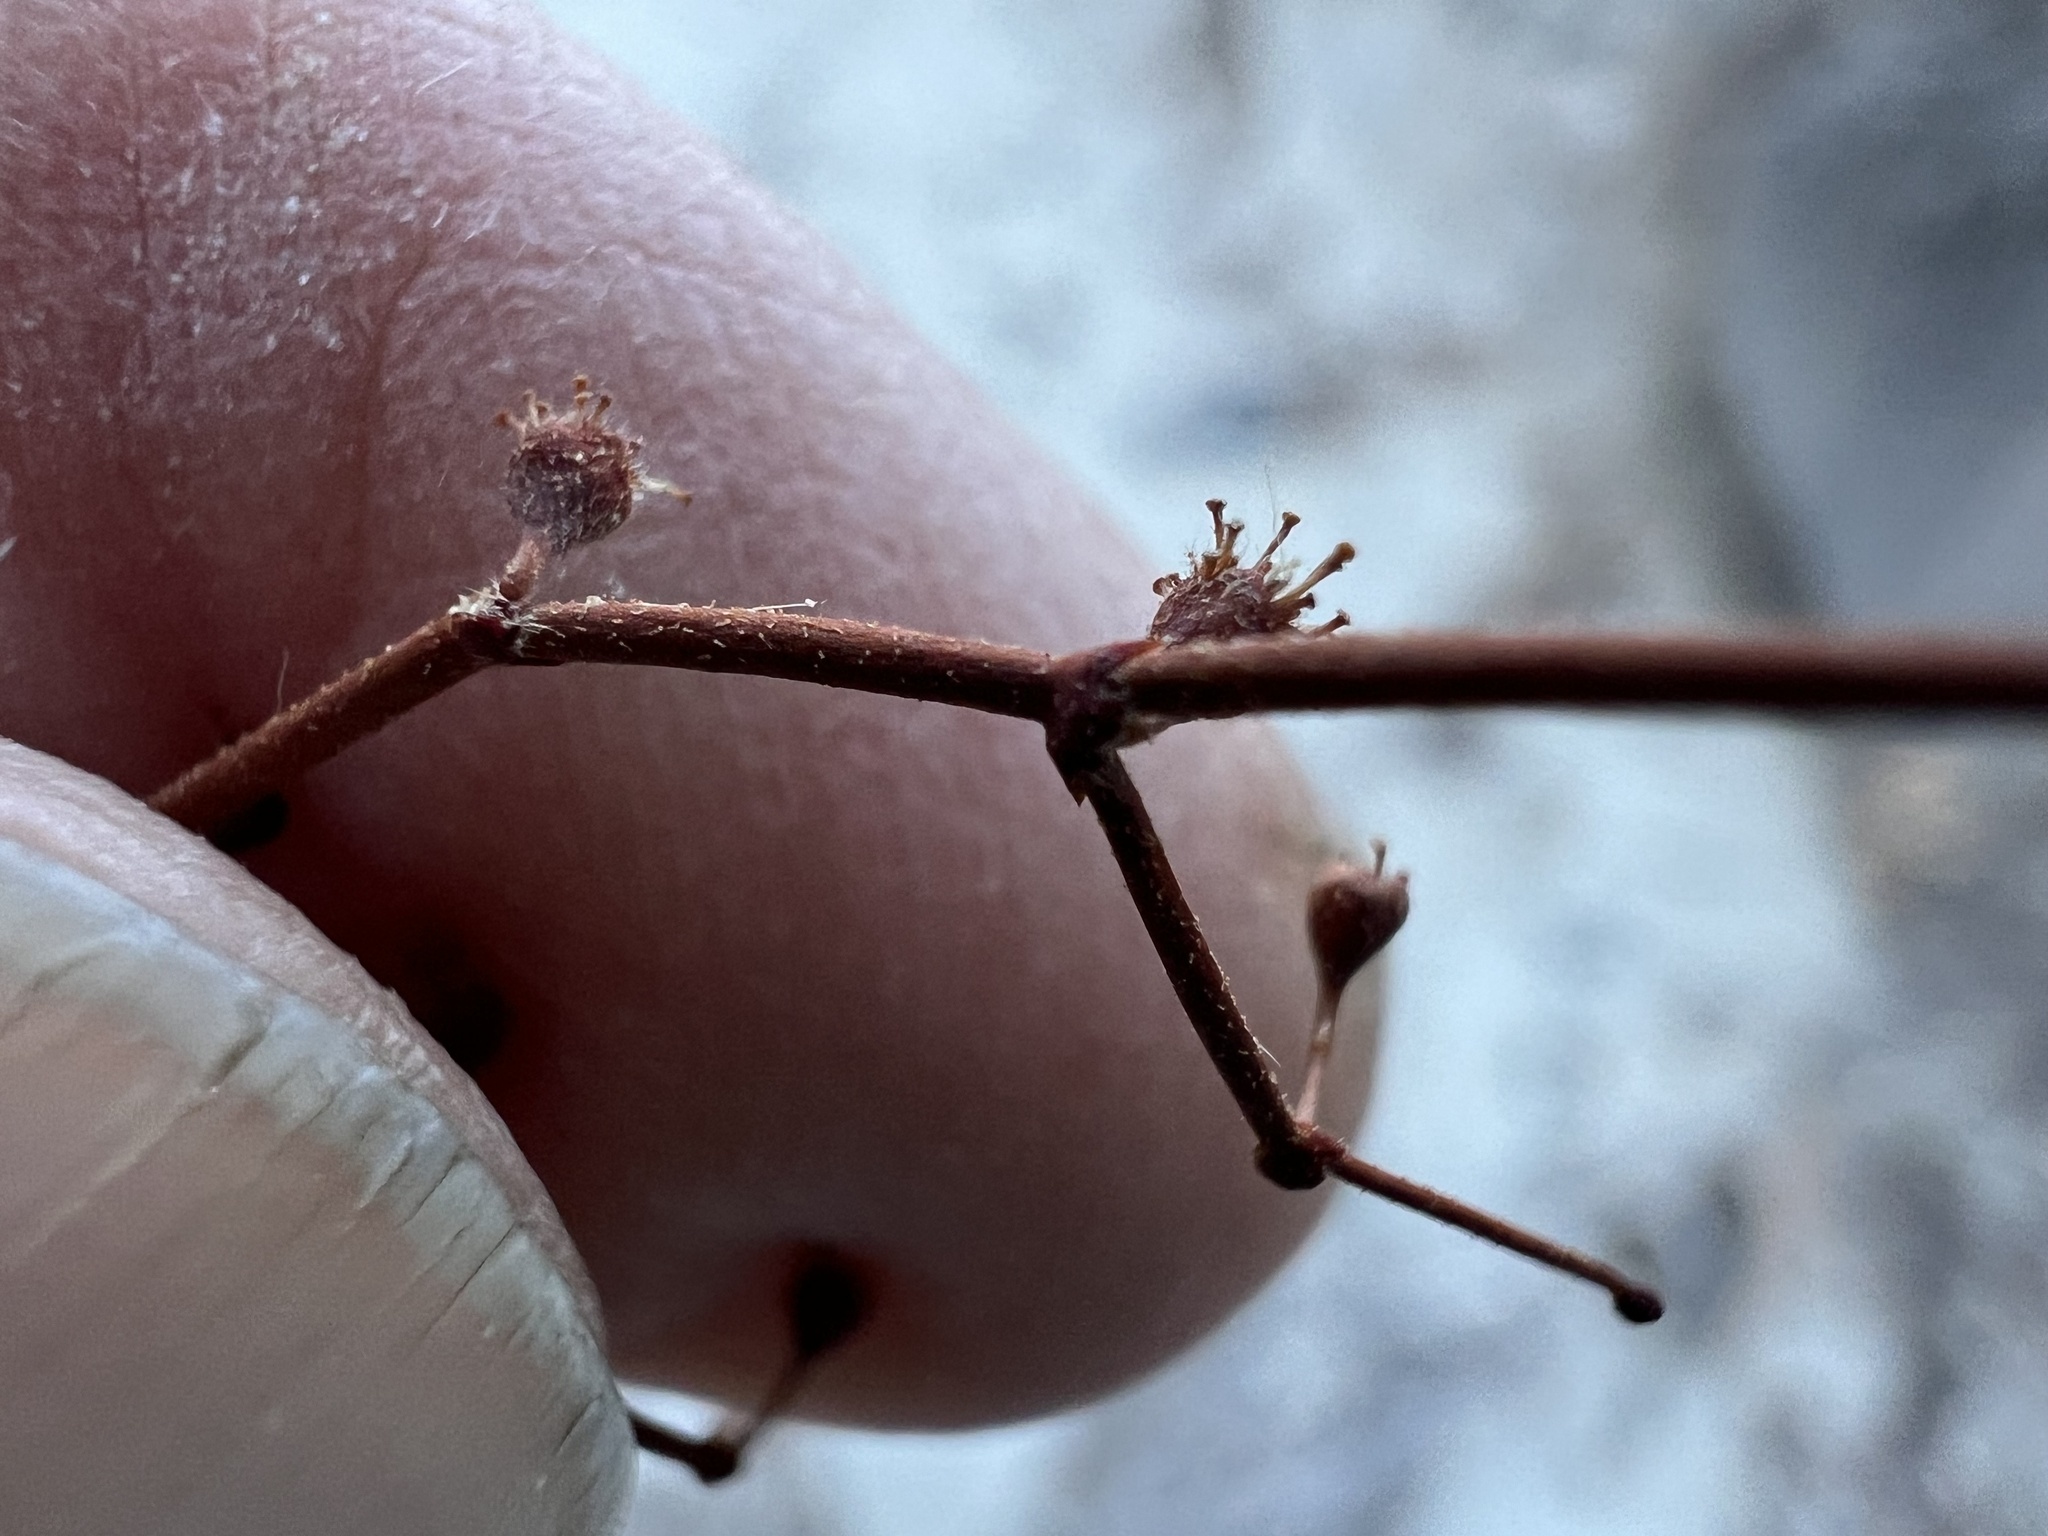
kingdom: Plantae
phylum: Tracheophyta
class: Magnoliopsida
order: Caryophyllales
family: Polygonaceae
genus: Eriogonum
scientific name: Eriogonum brachypodum
